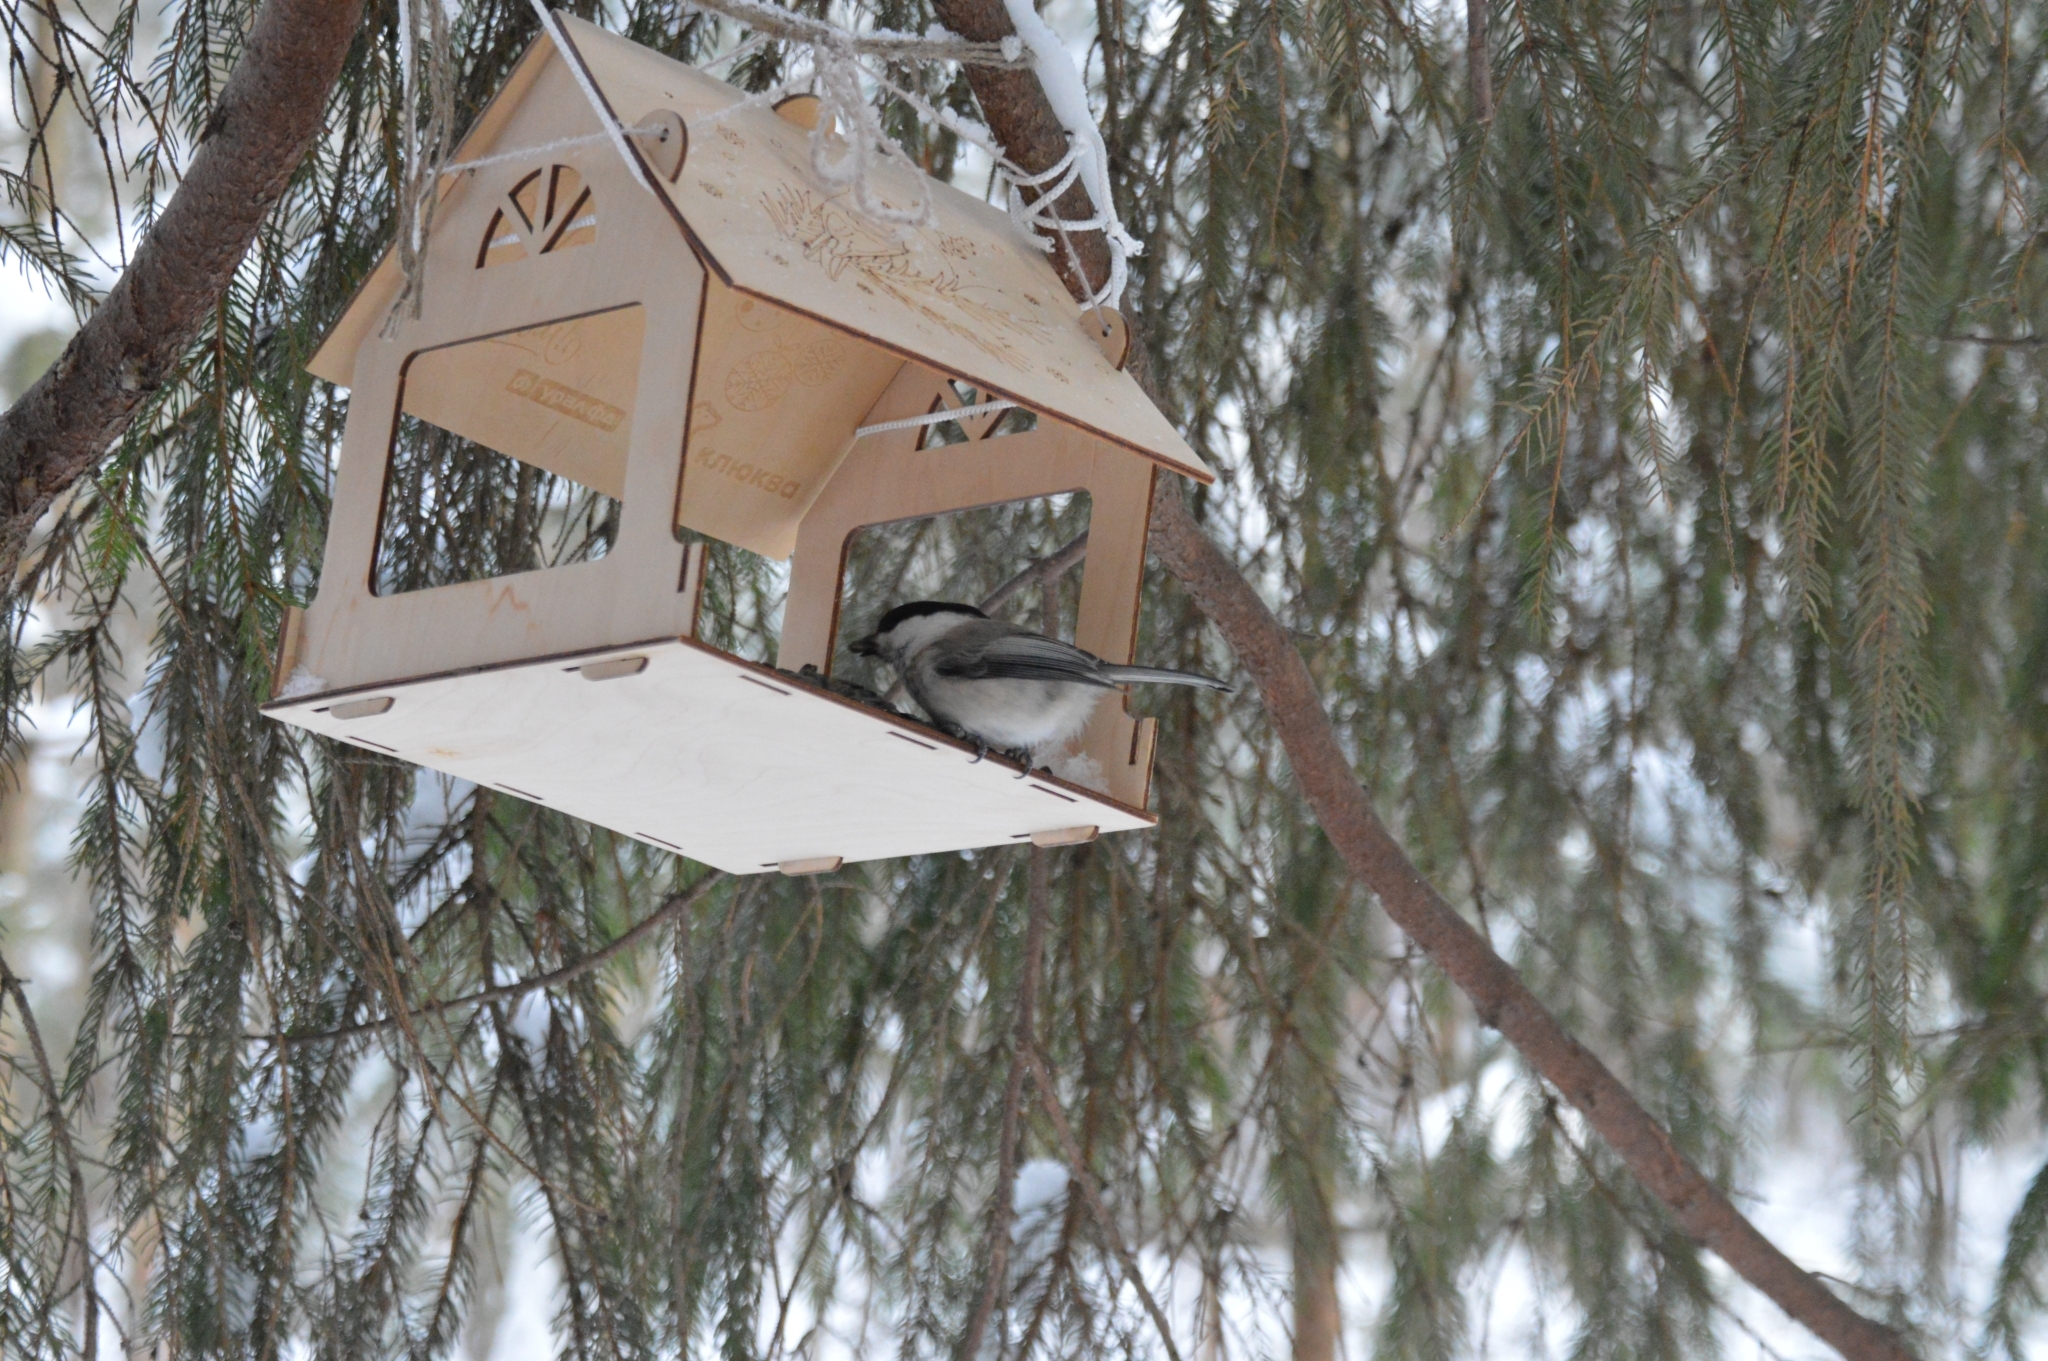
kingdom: Animalia
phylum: Chordata
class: Aves
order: Passeriformes
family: Paridae
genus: Poecile
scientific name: Poecile montanus
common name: Willow tit
